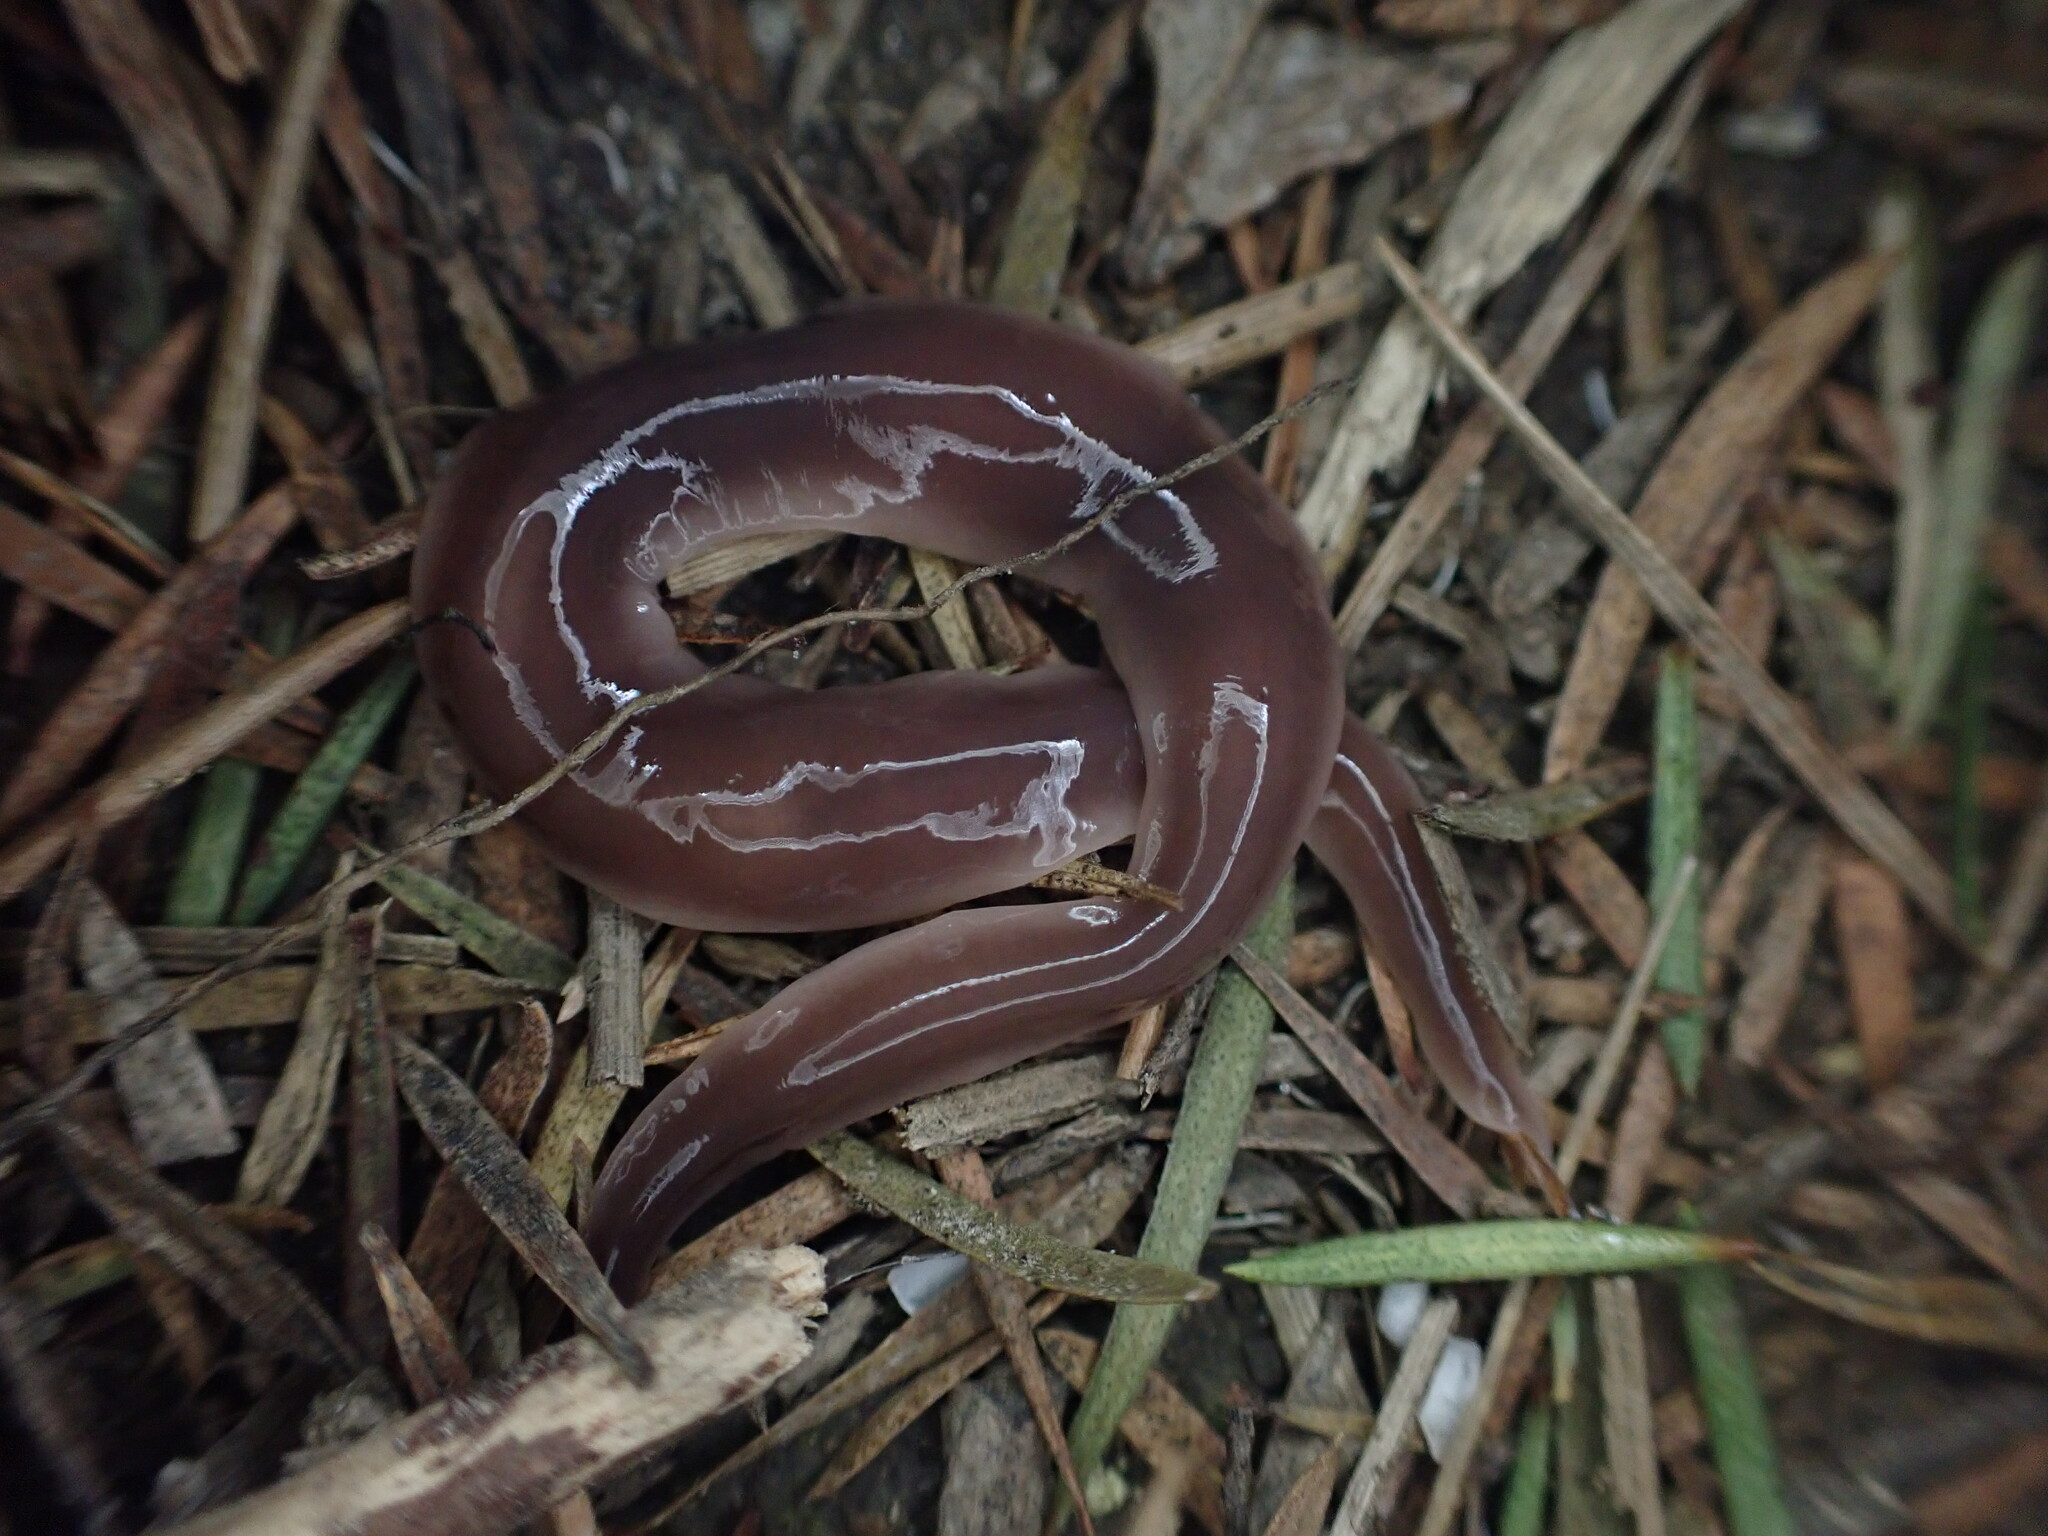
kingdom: Animalia
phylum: Platyhelminthes
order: Tricladida
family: Geoplanidae
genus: Arthurdendyus
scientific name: Arthurdendyus australis
